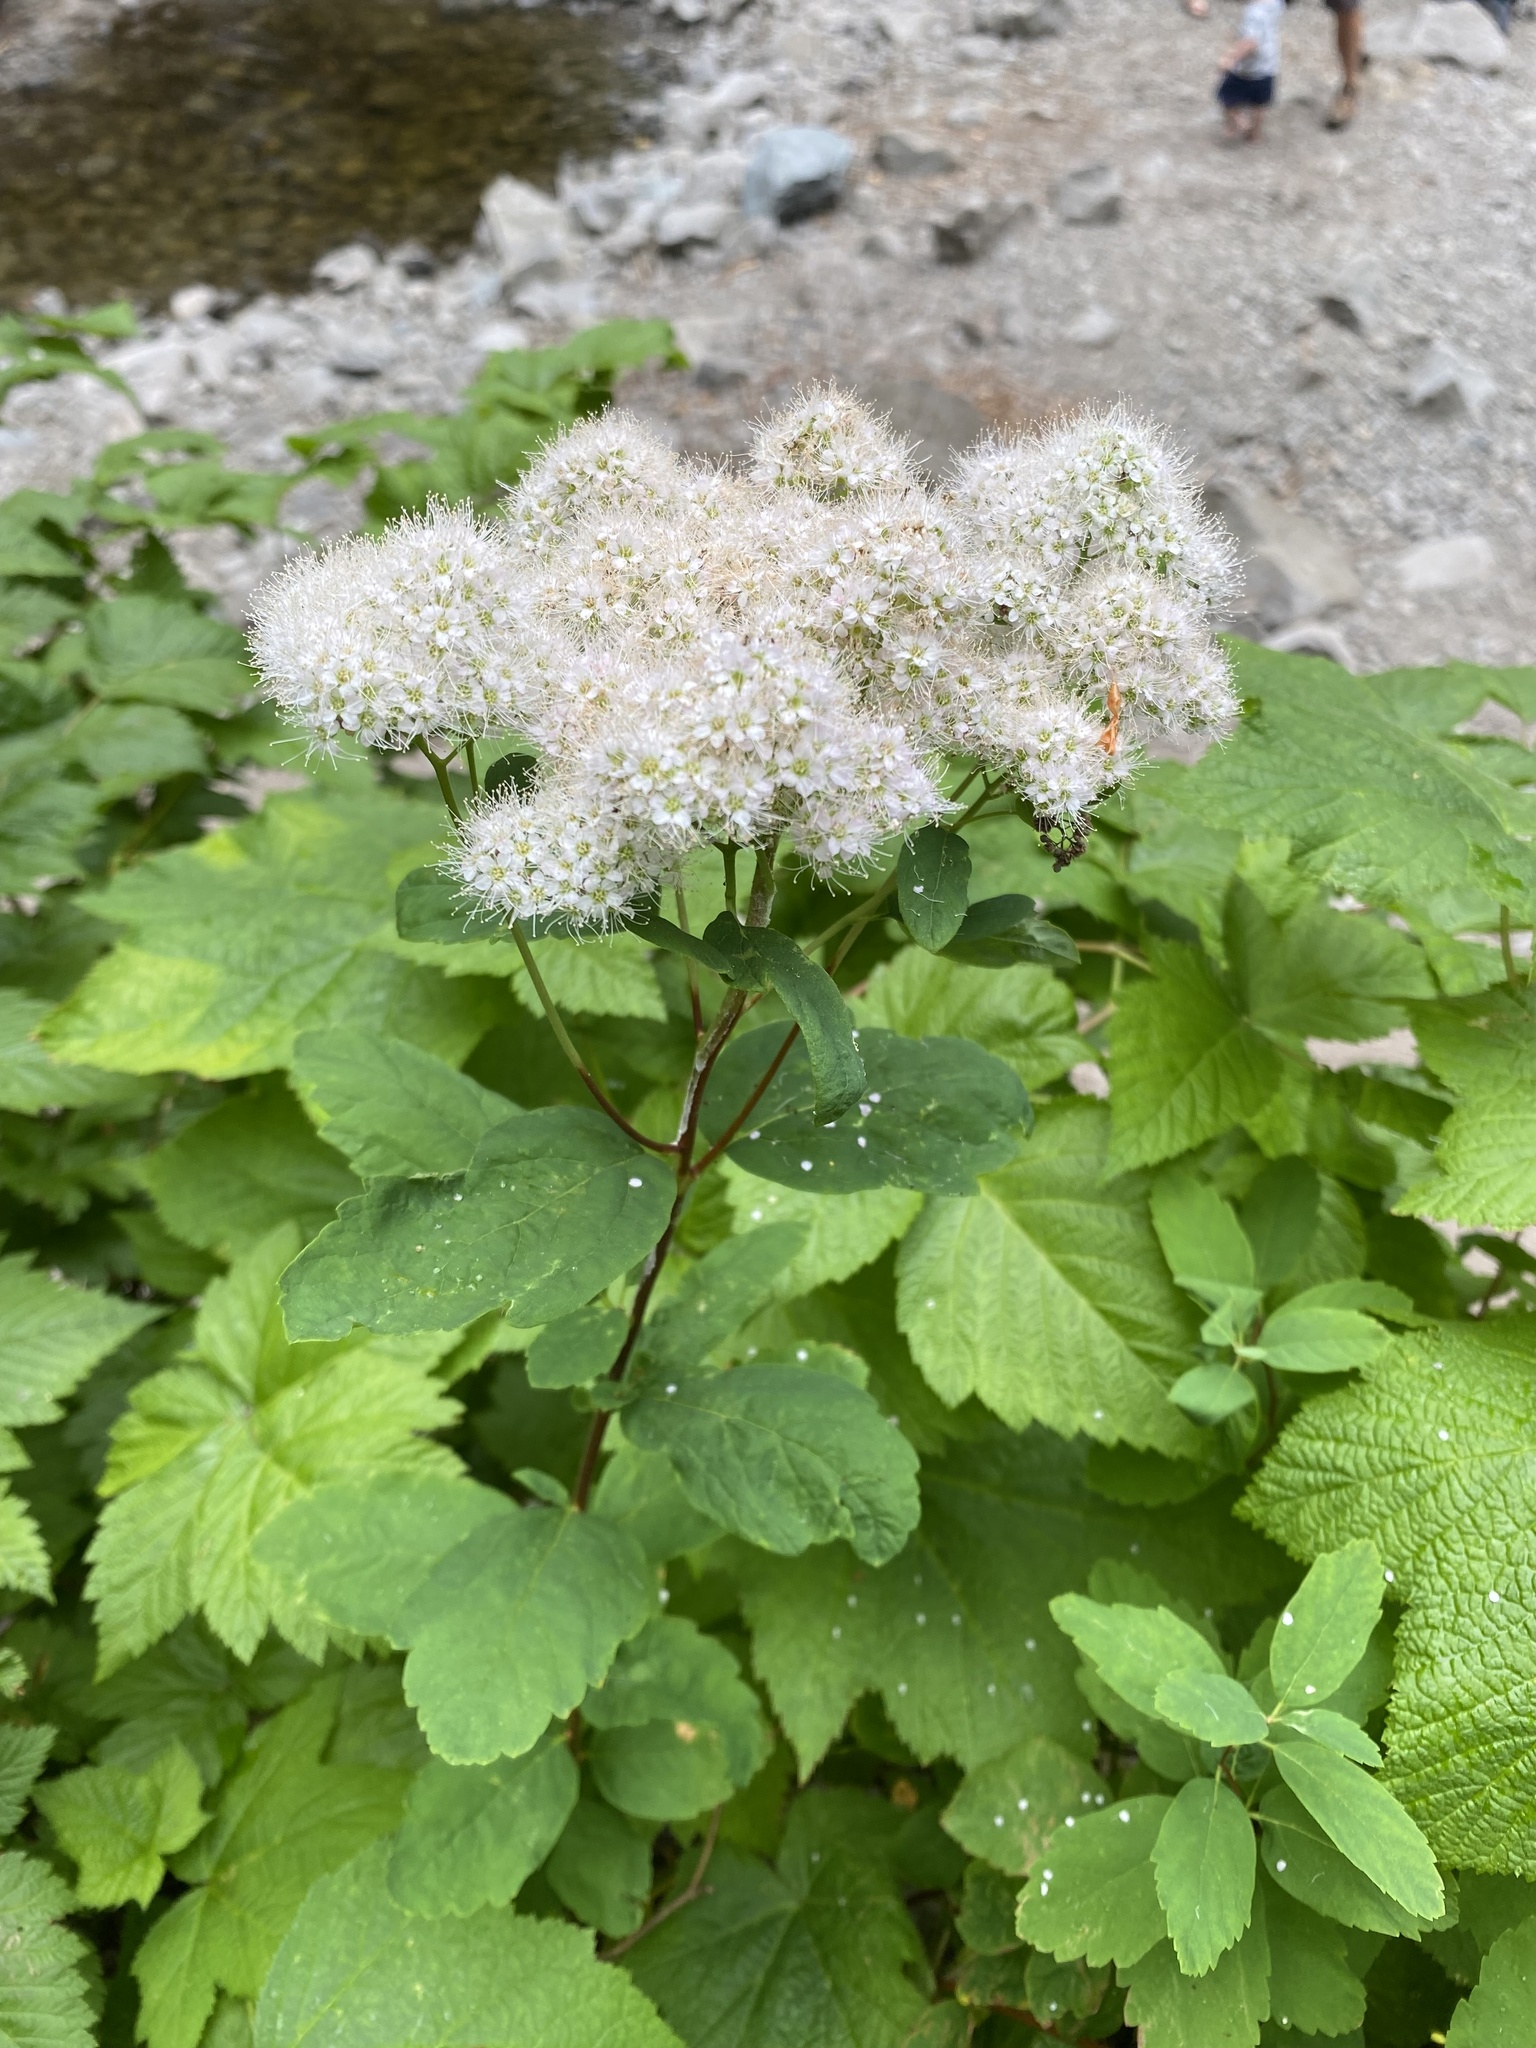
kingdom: Plantae
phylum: Tracheophyta
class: Magnoliopsida
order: Rosales
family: Rosaceae
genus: Spiraea
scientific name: Spiraea lucida
